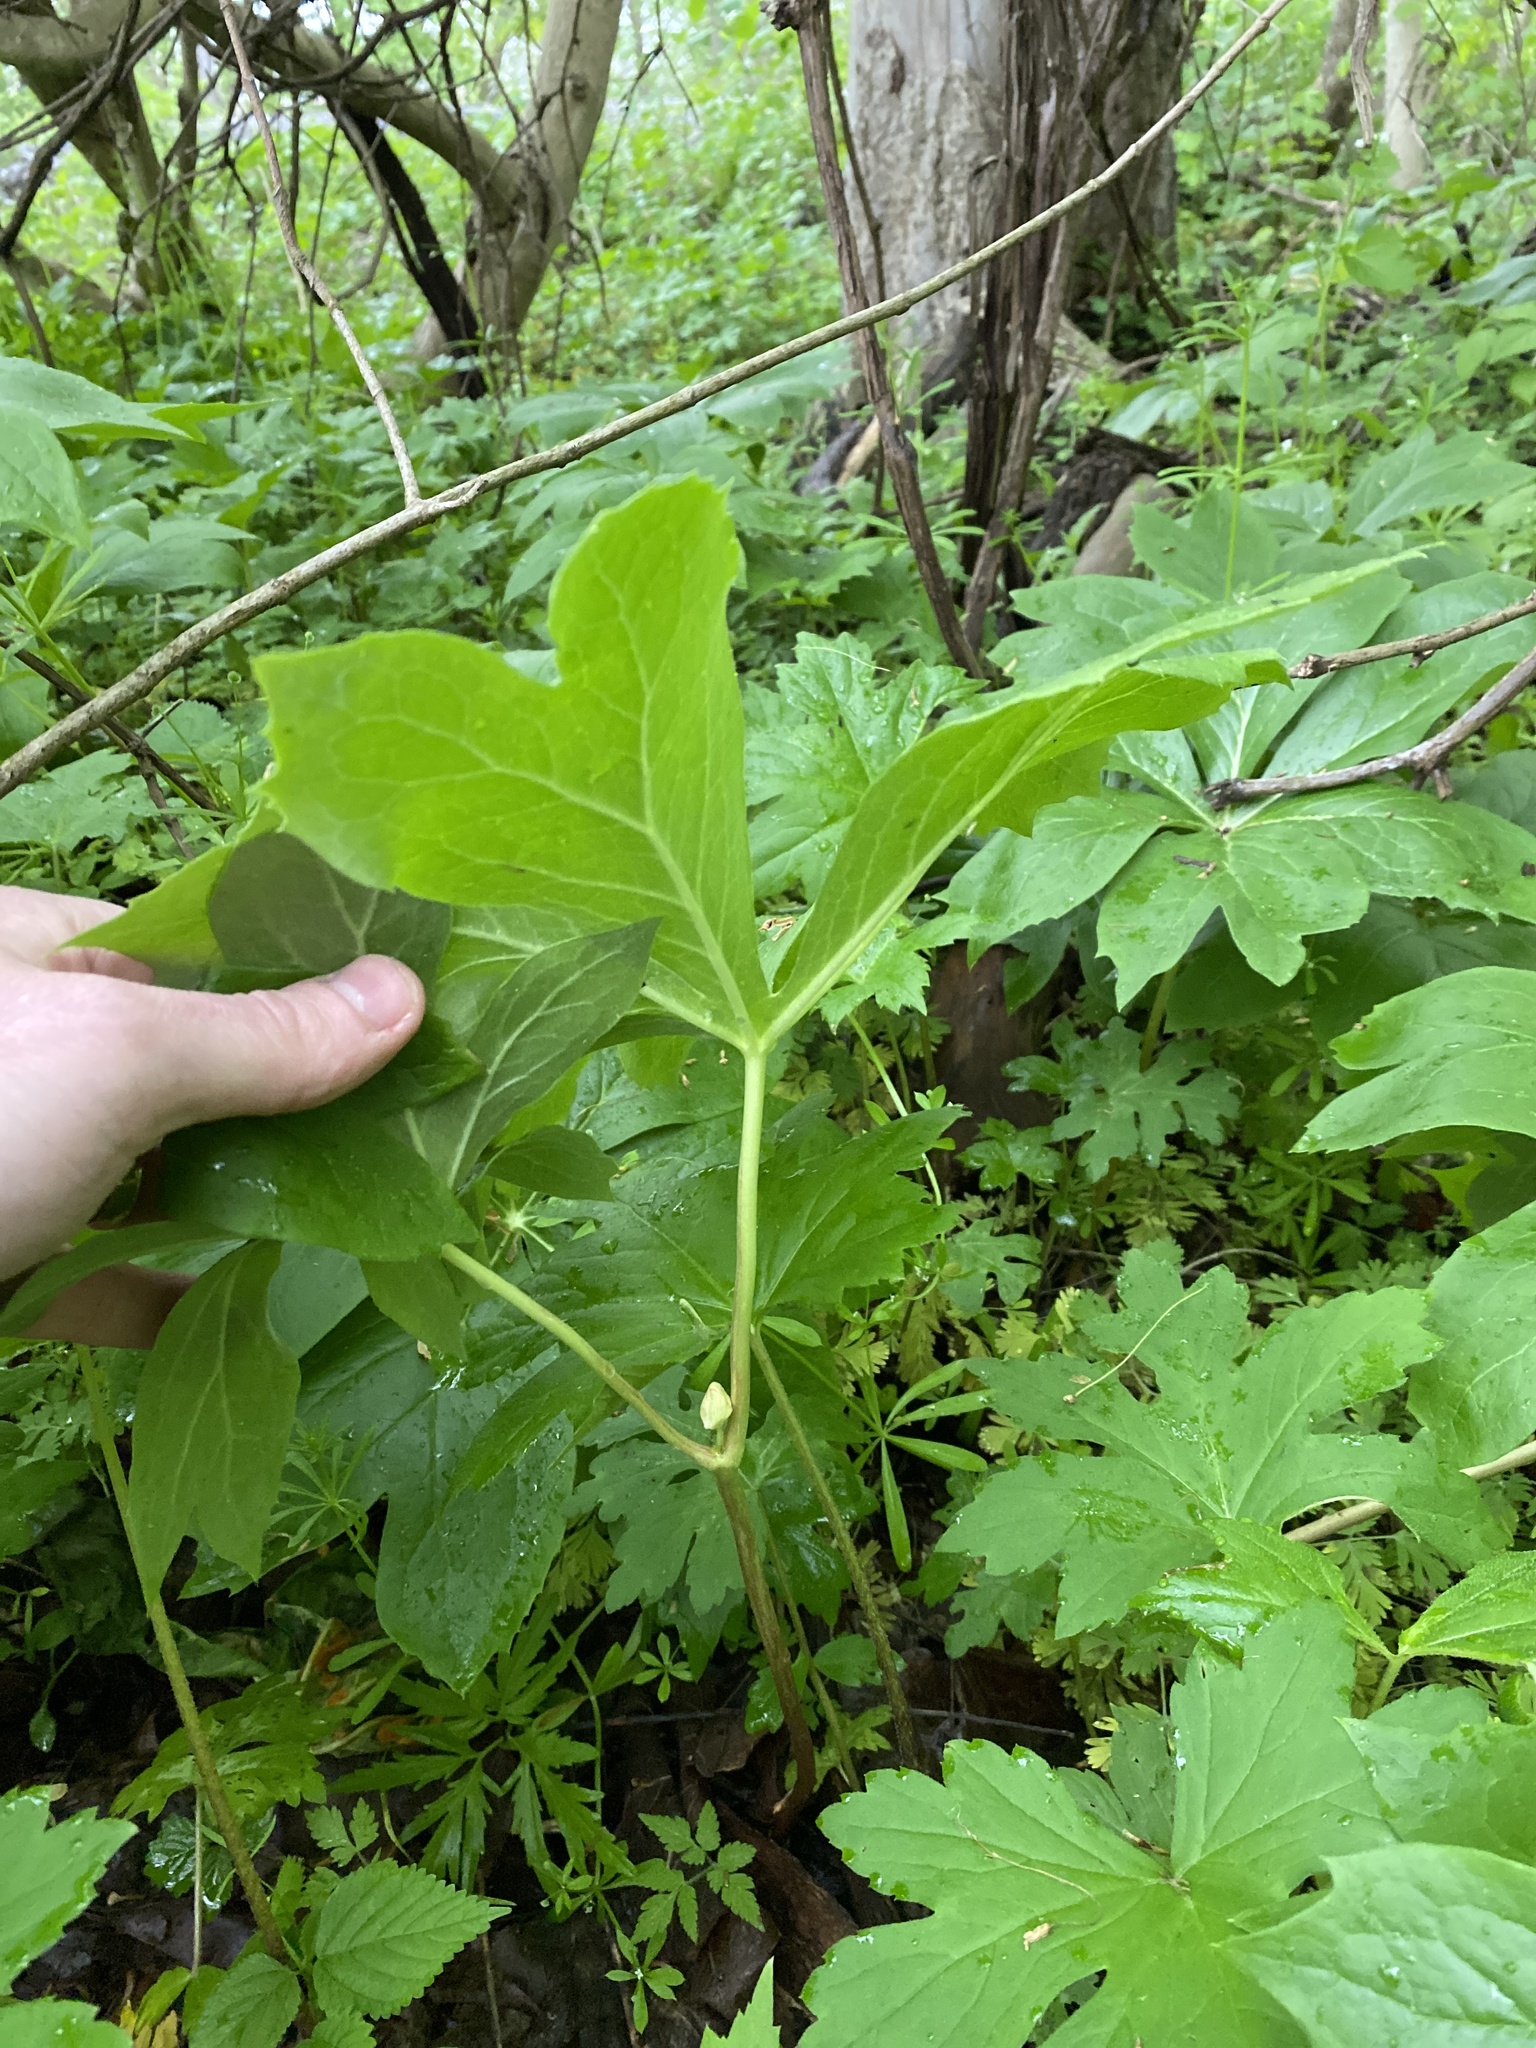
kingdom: Plantae
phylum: Tracheophyta
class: Magnoliopsida
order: Ranunculales
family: Berberidaceae
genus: Podophyllum
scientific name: Podophyllum peltatum
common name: Wild mandrake
